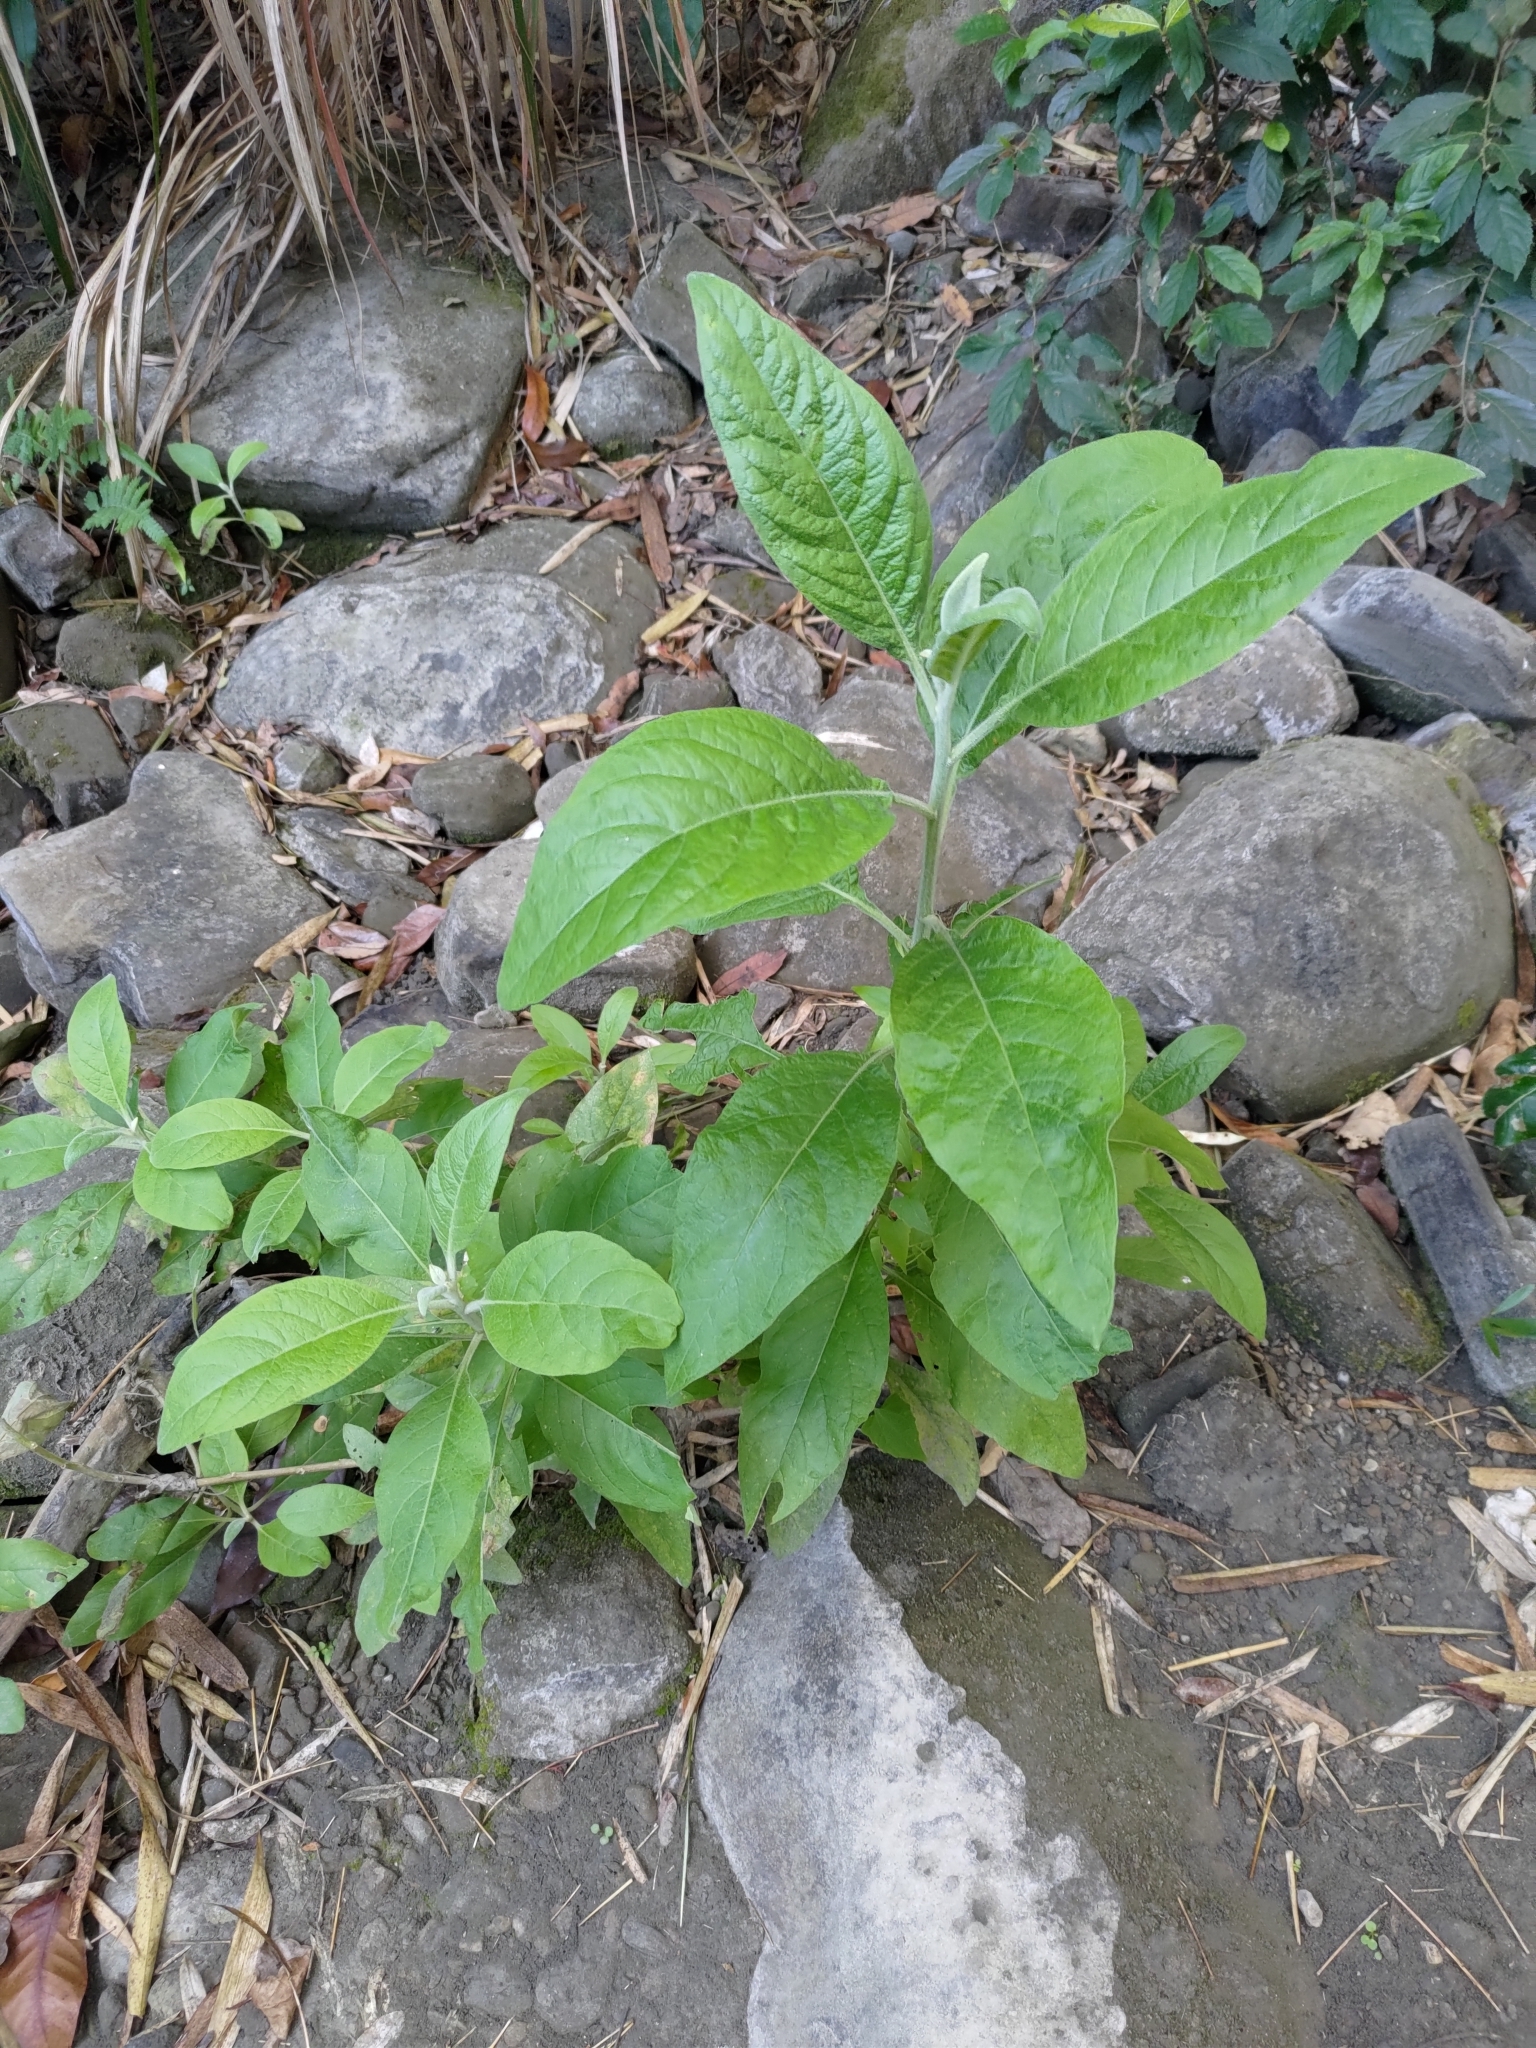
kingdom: Plantae
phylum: Tracheophyta
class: Magnoliopsida
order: Solanales
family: Solanaceae
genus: Solanum
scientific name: Solanum erianthum
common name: Tobacco-tree
